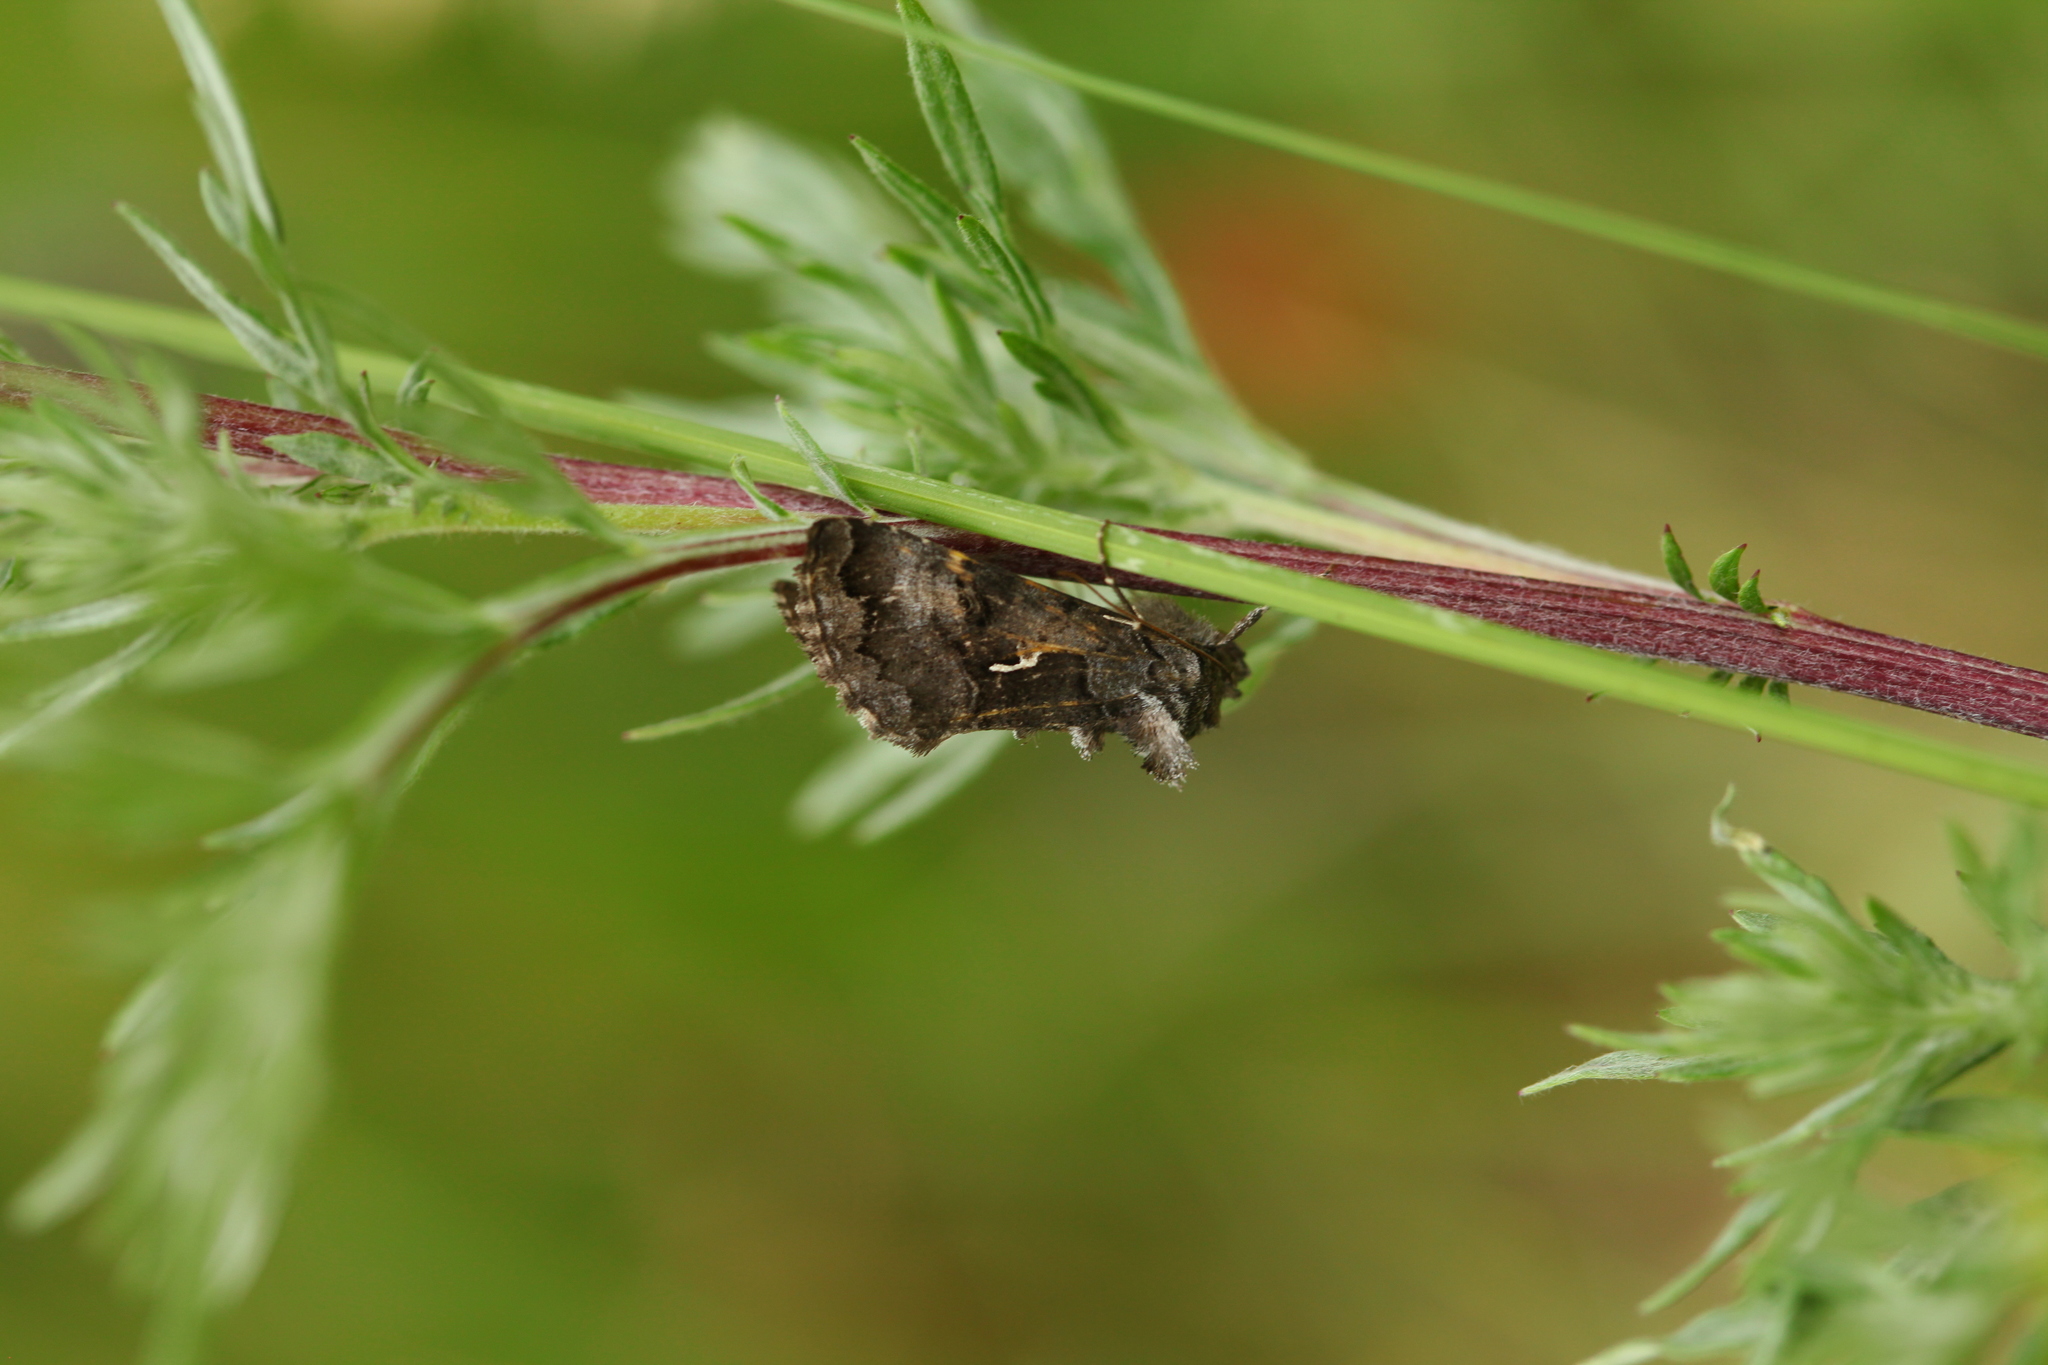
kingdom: Animalia
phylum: Arthropoda
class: Insecta
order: Lepidoptera
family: Noctuidae
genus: Syngrapha
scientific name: Syngrapha ain
